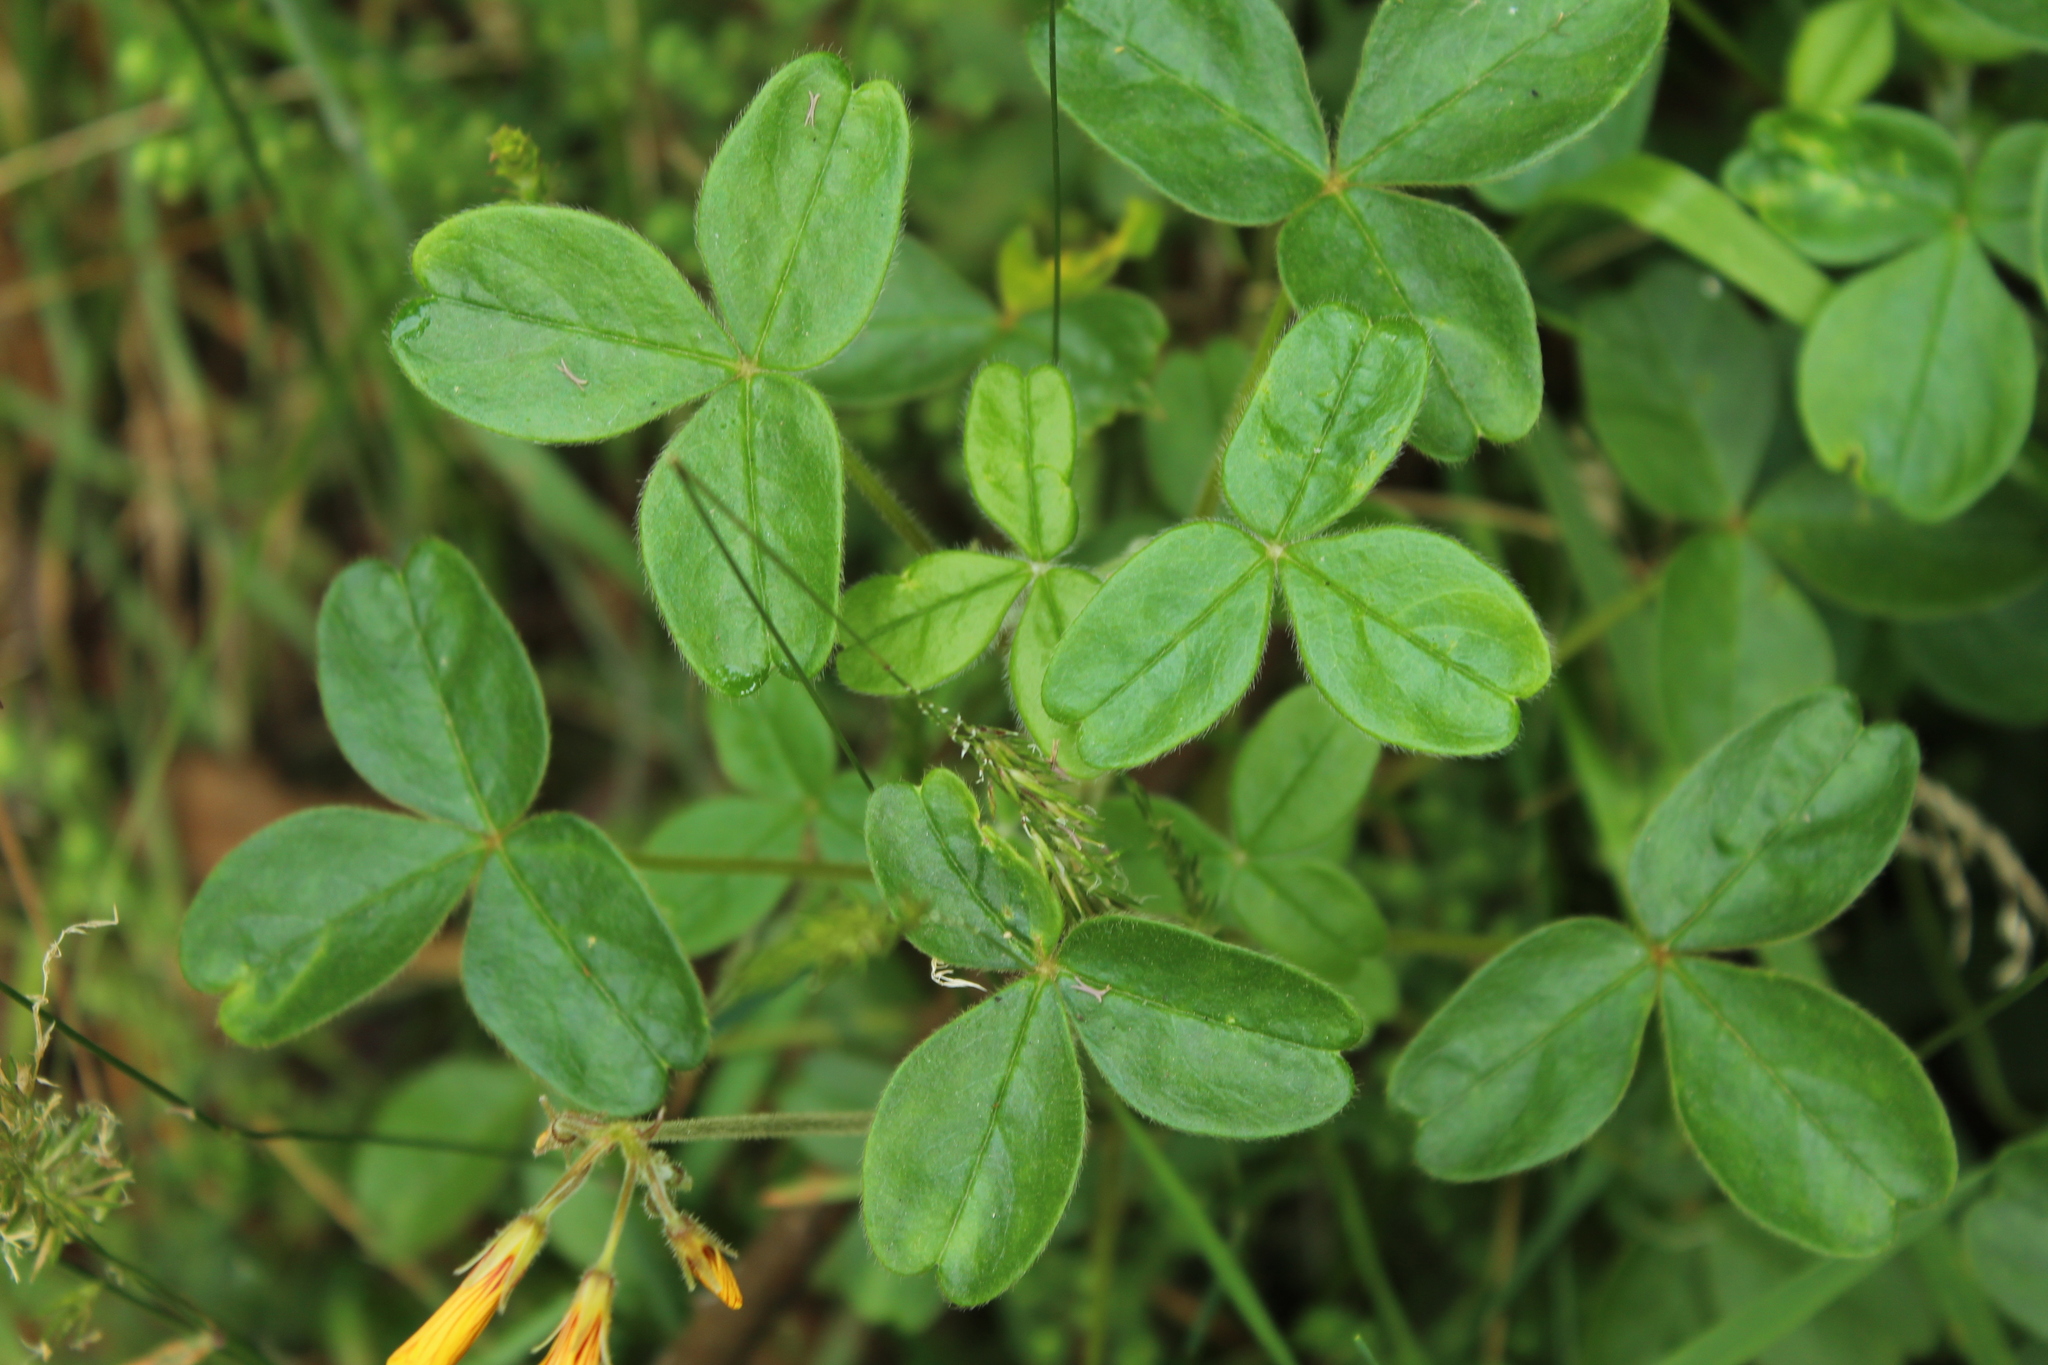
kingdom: Plantae
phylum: Tracheophyta
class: Magnoliopsida
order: Oxalidales
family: Oxalidaceae
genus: Oxalis
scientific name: Oxalis fendleri
